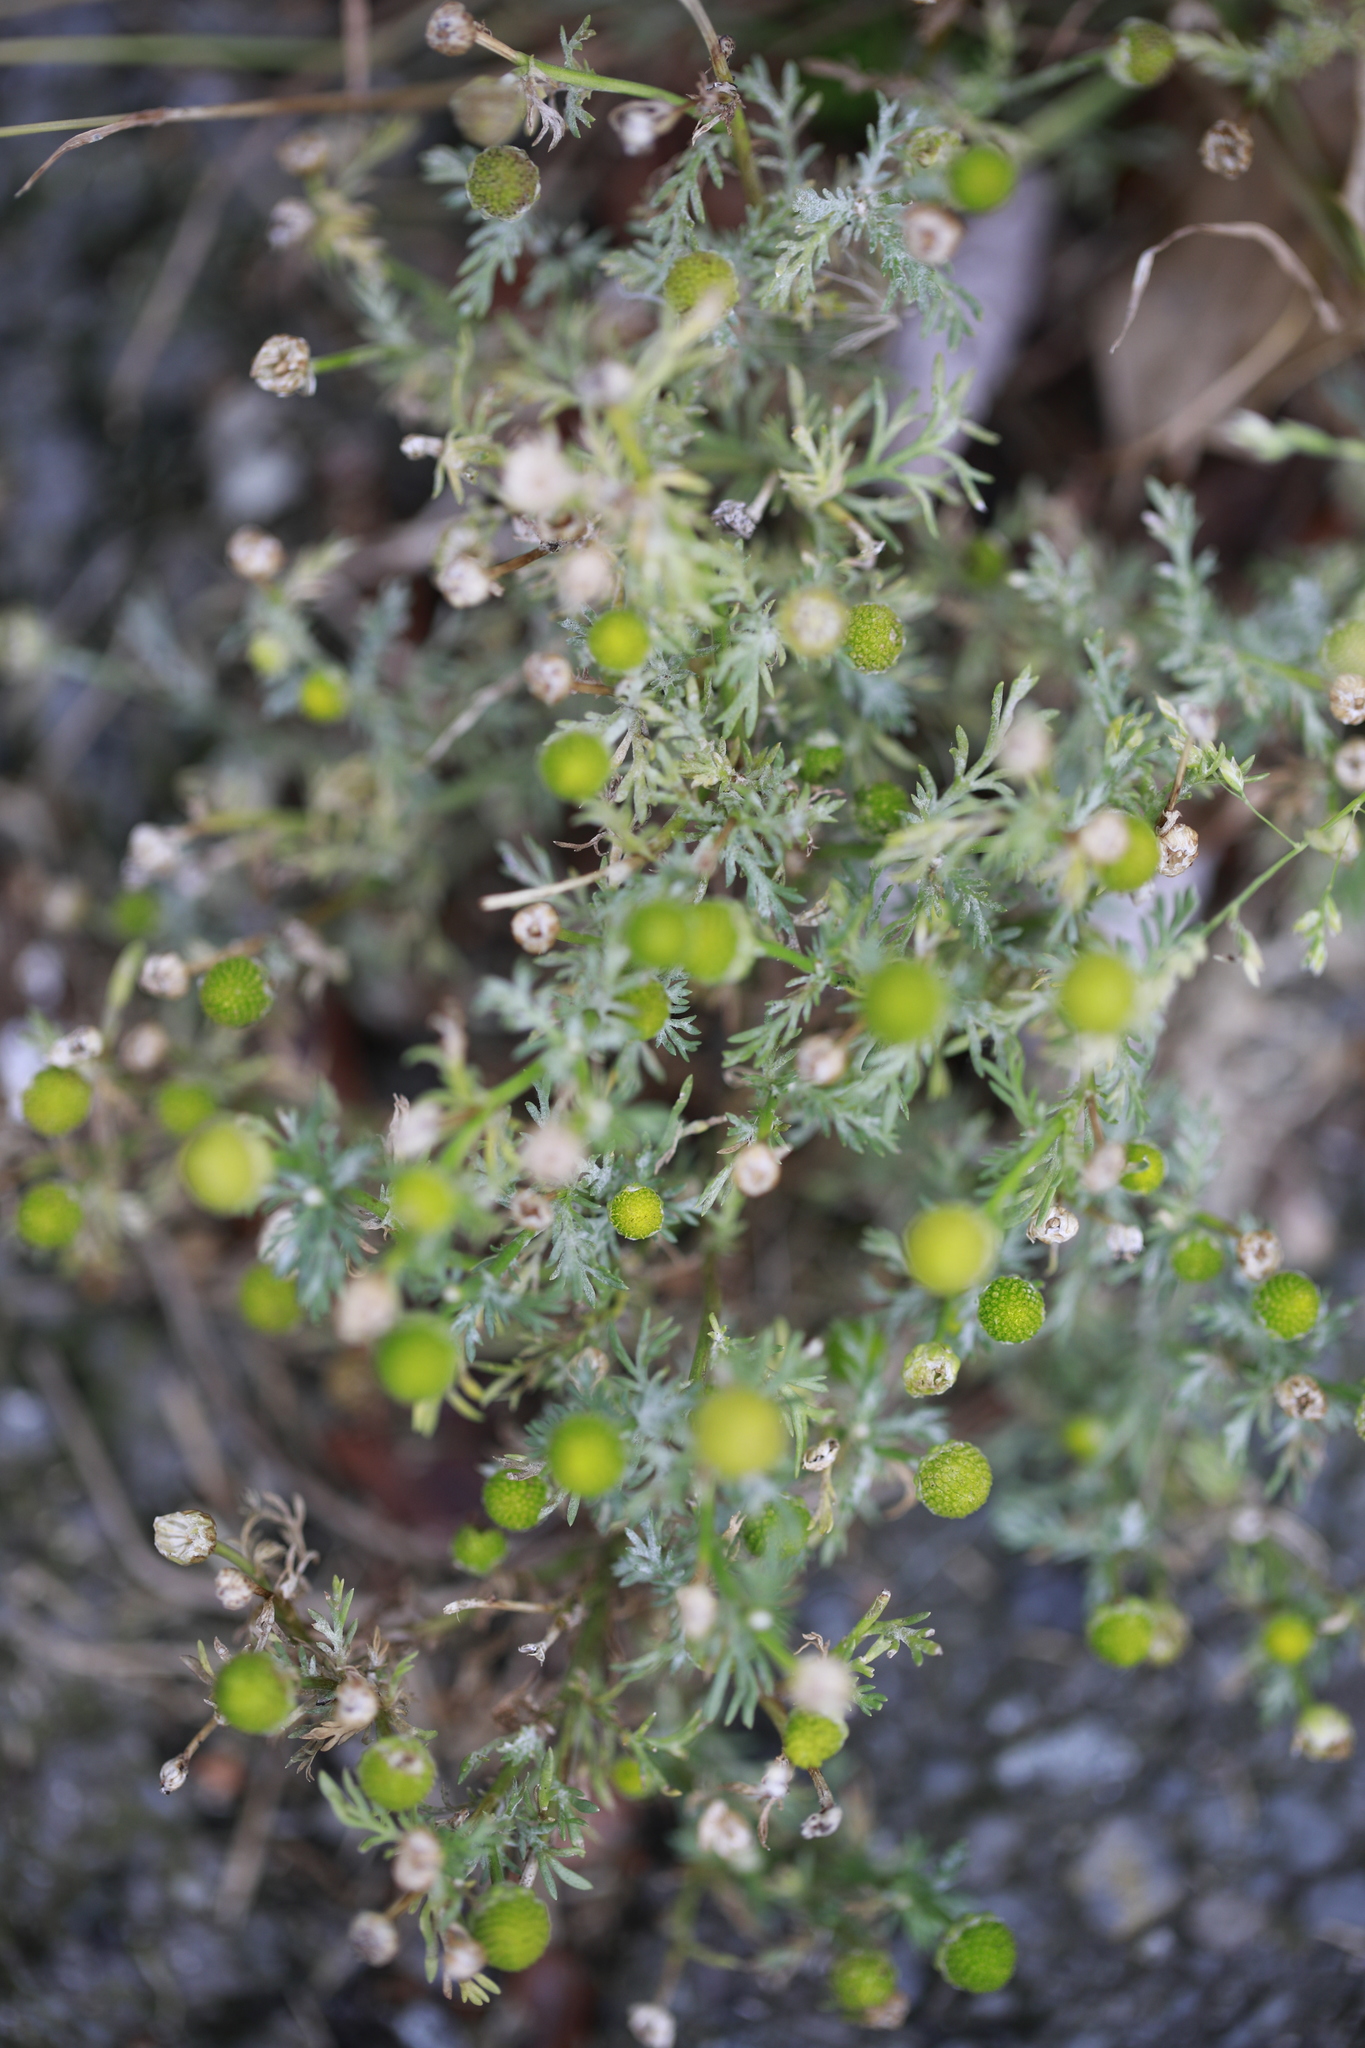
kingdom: Plantae
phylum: Tracheophyta
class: Magnoliopsida
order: Asterales
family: Asteraceae
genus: Matricaria
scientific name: Matricaria discoidea
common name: Disc mayweed
